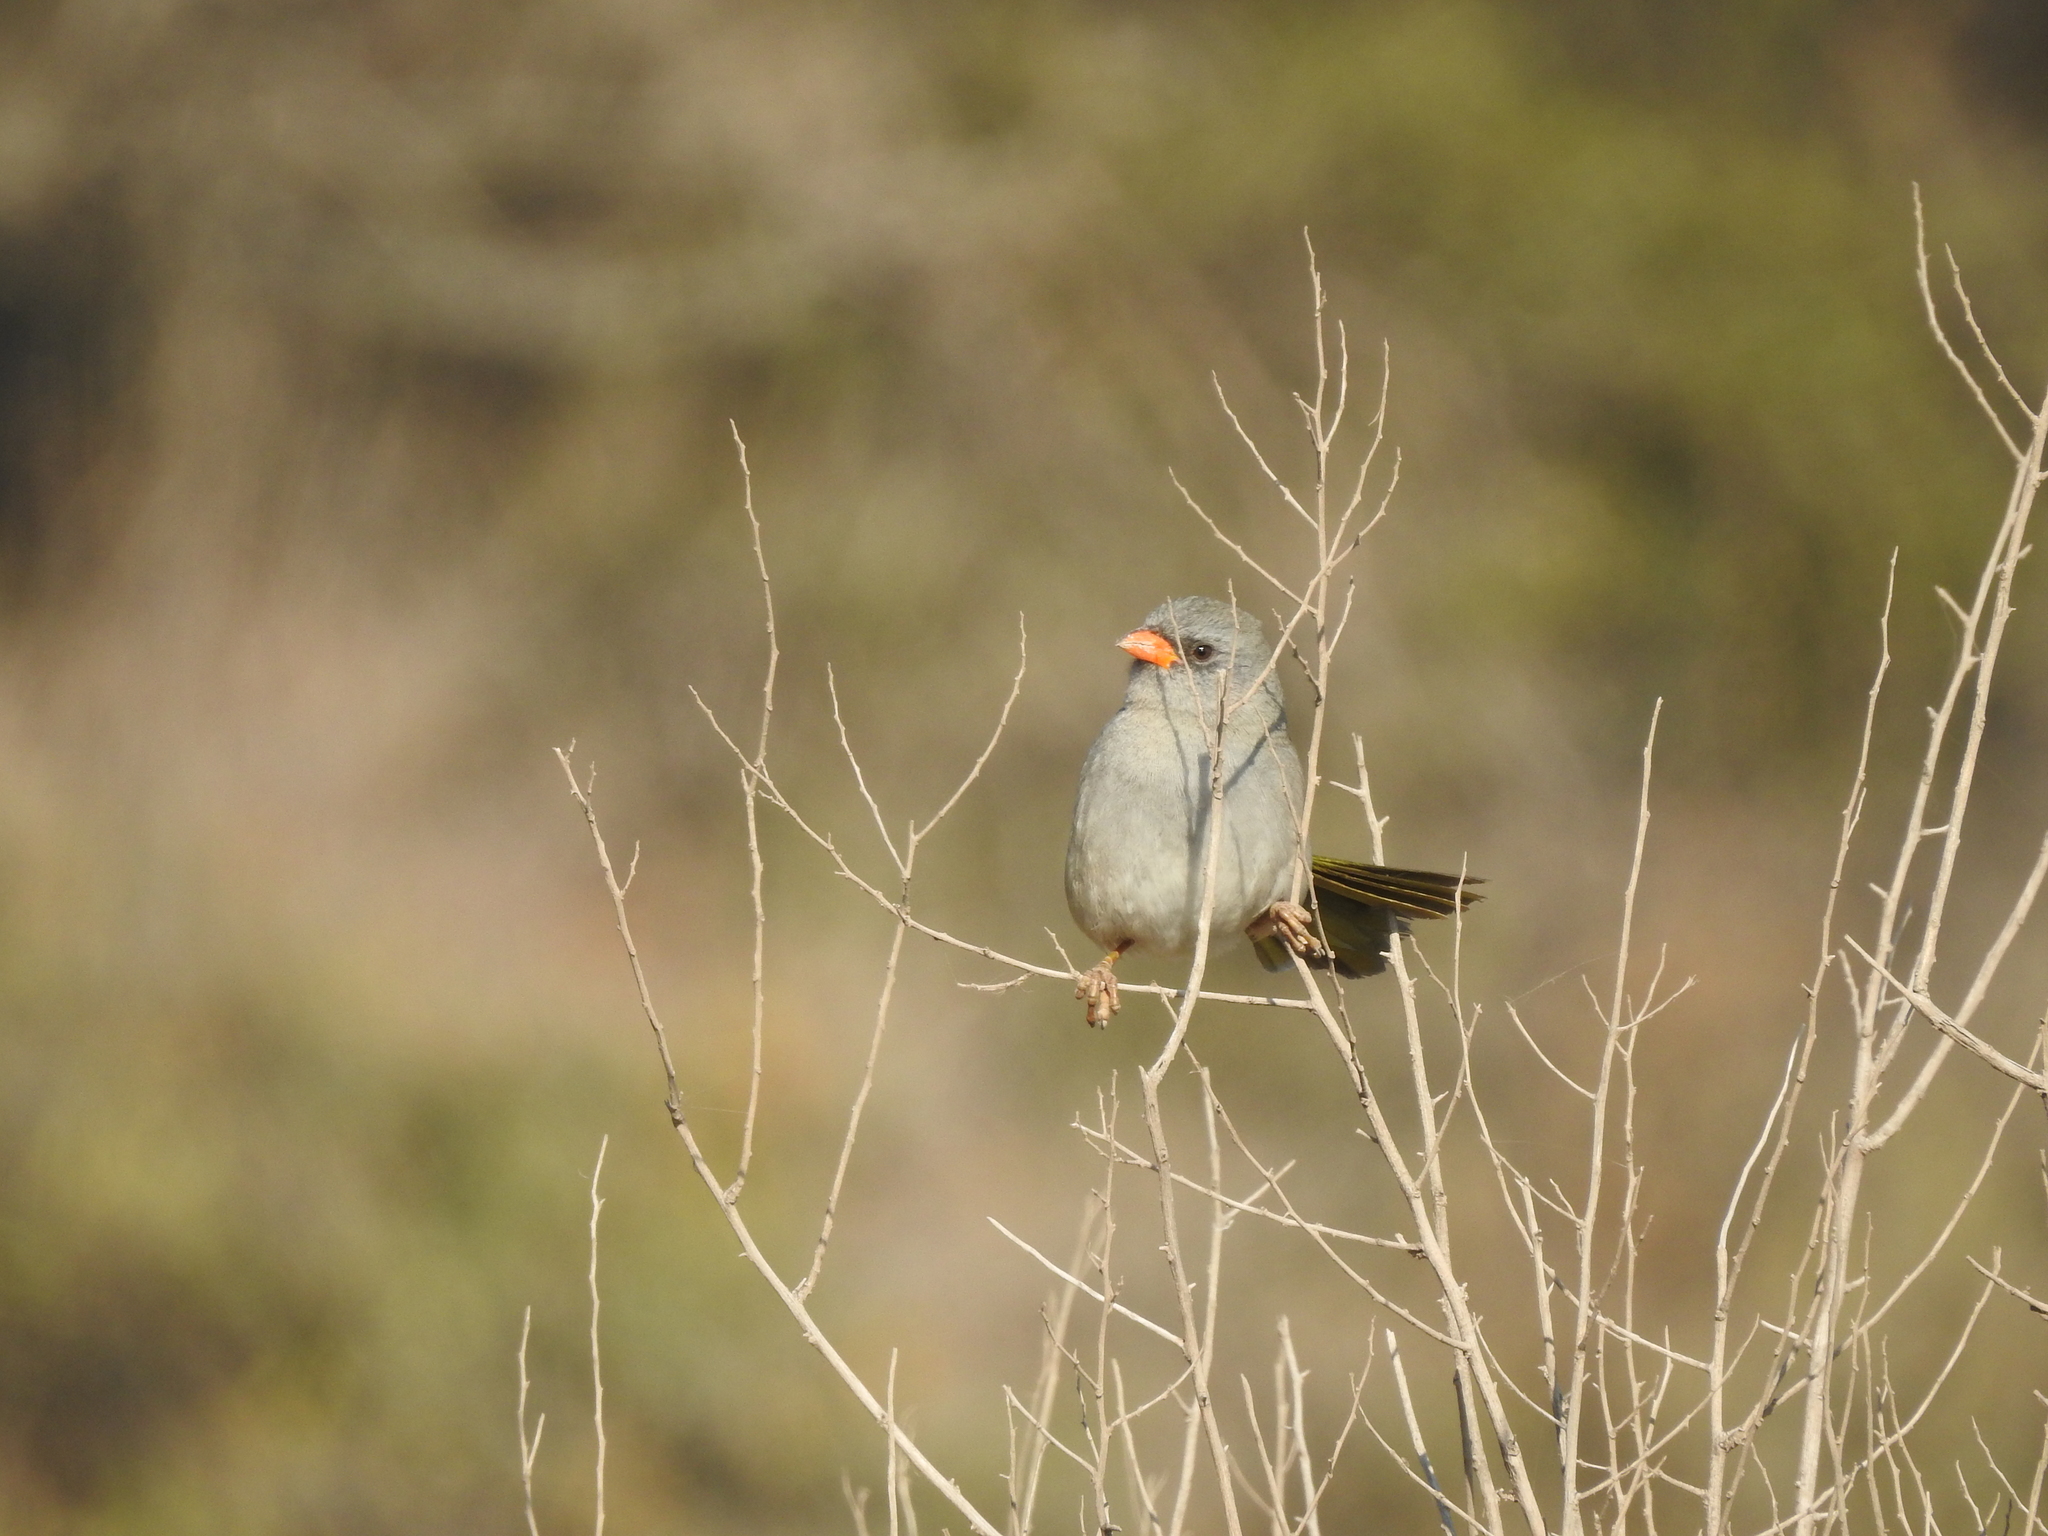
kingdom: Animalia
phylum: Chordata
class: Aves
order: Passeriformes
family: Thraupidae
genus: Embernagra
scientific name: Embernagra platensis
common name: Pampa finch
